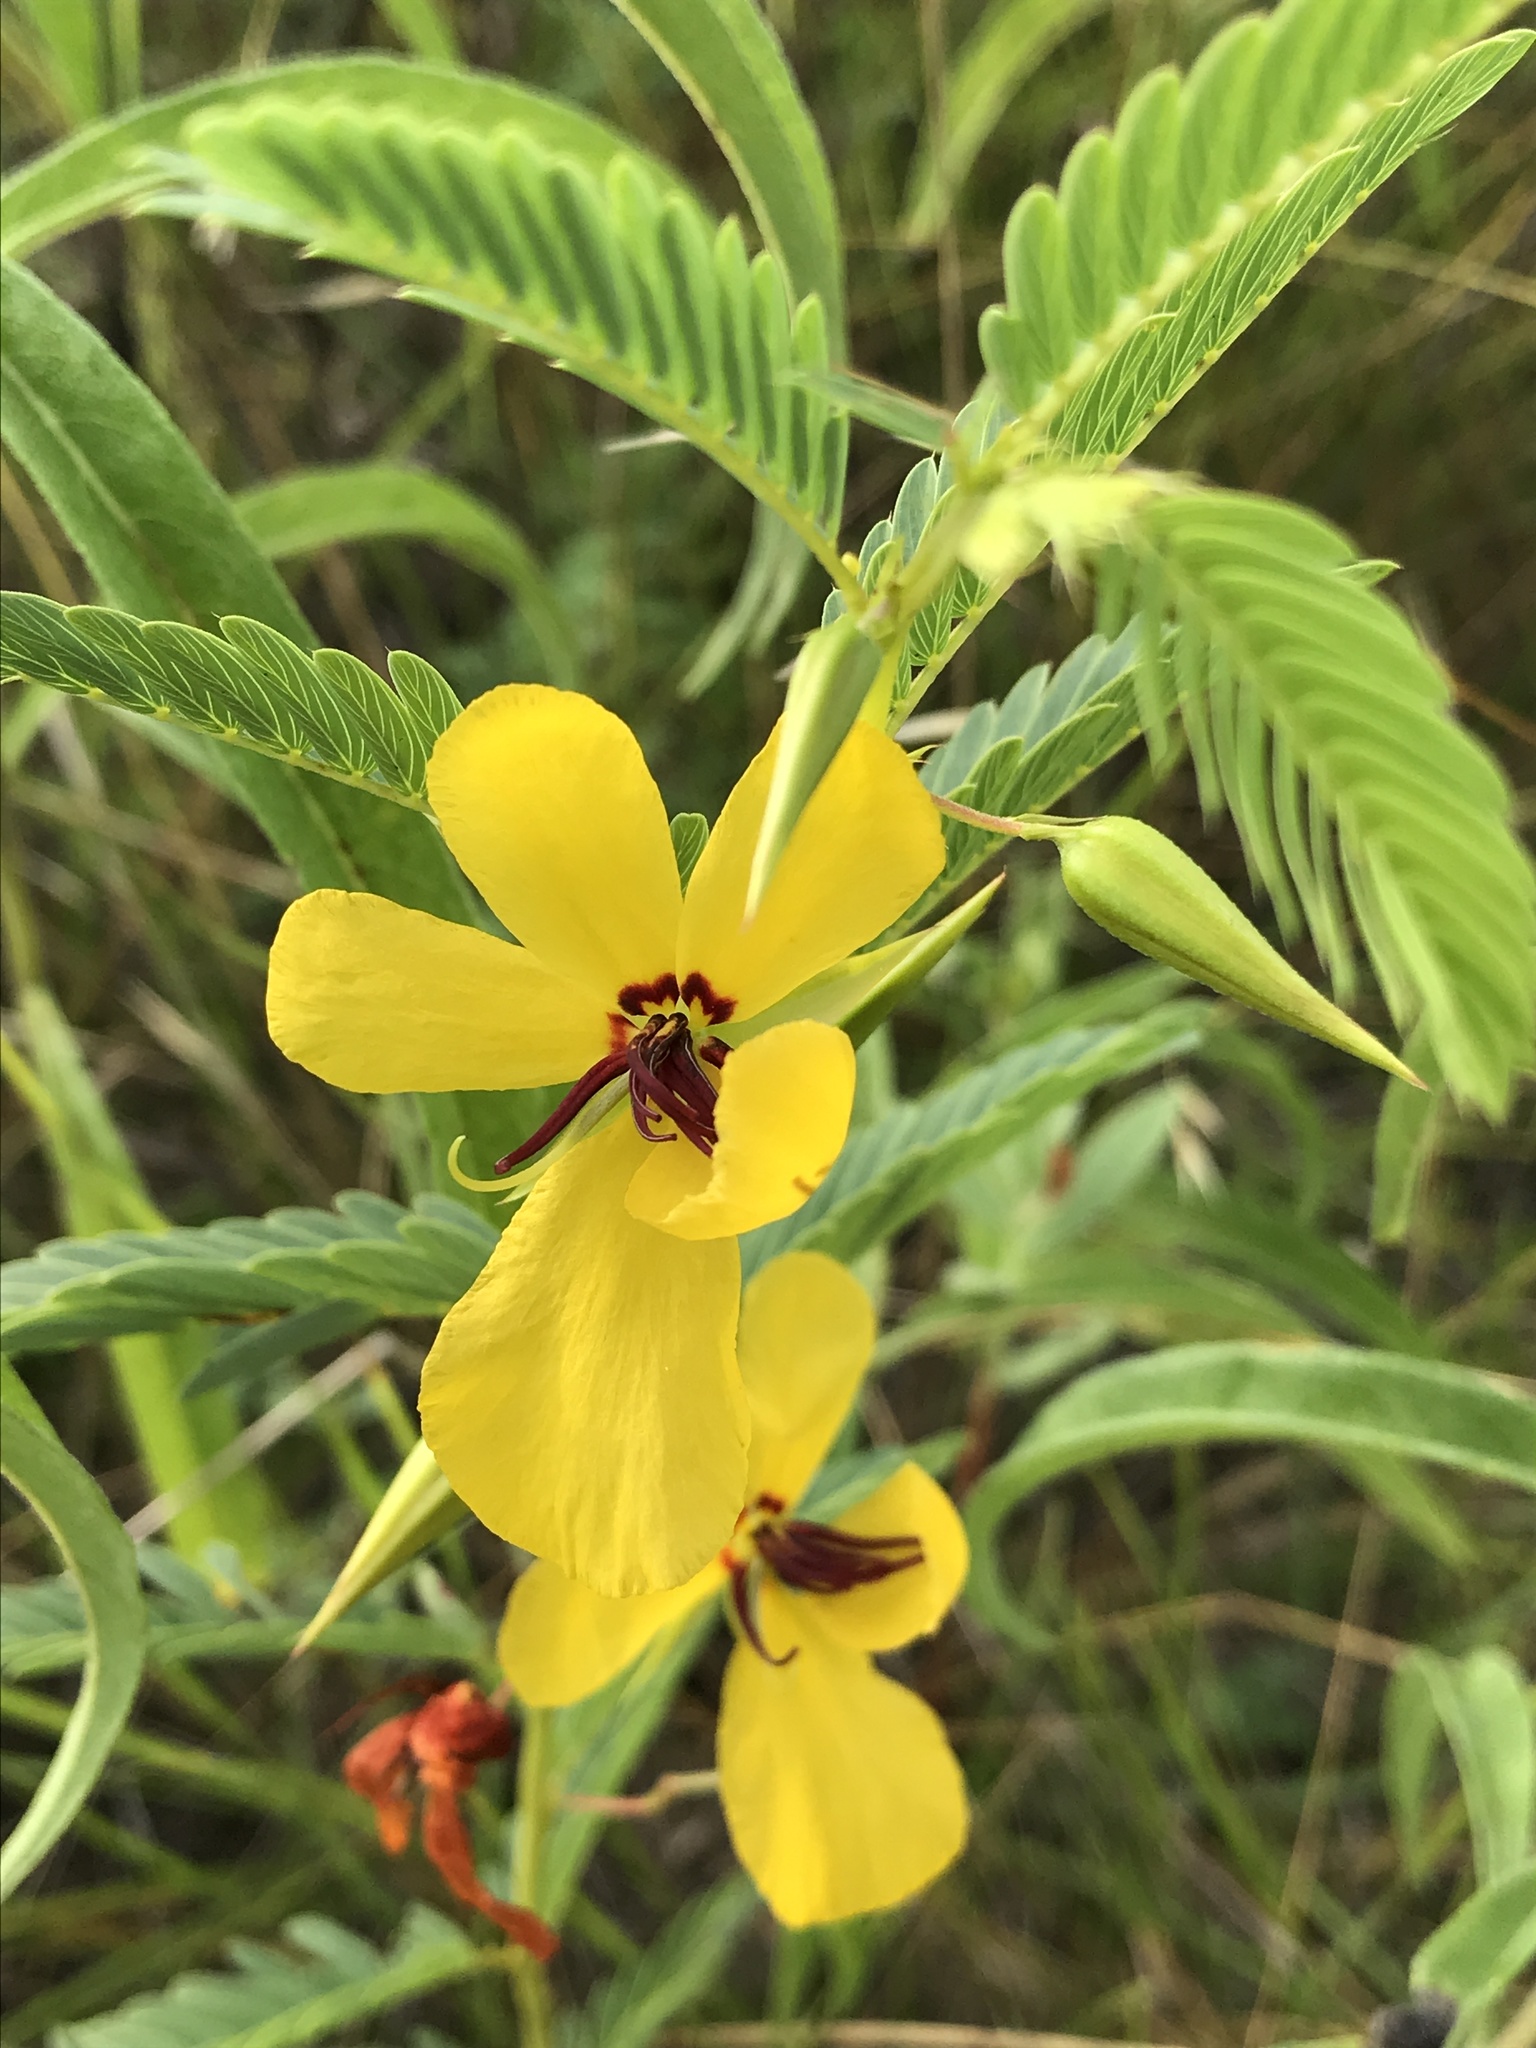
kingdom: Plantae
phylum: Tracheophyta
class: Magnoliopsida
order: Fabales
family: Fabaceae
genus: Chamaecrista
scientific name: Chamaecrista fasciculata
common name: Golden cassia
